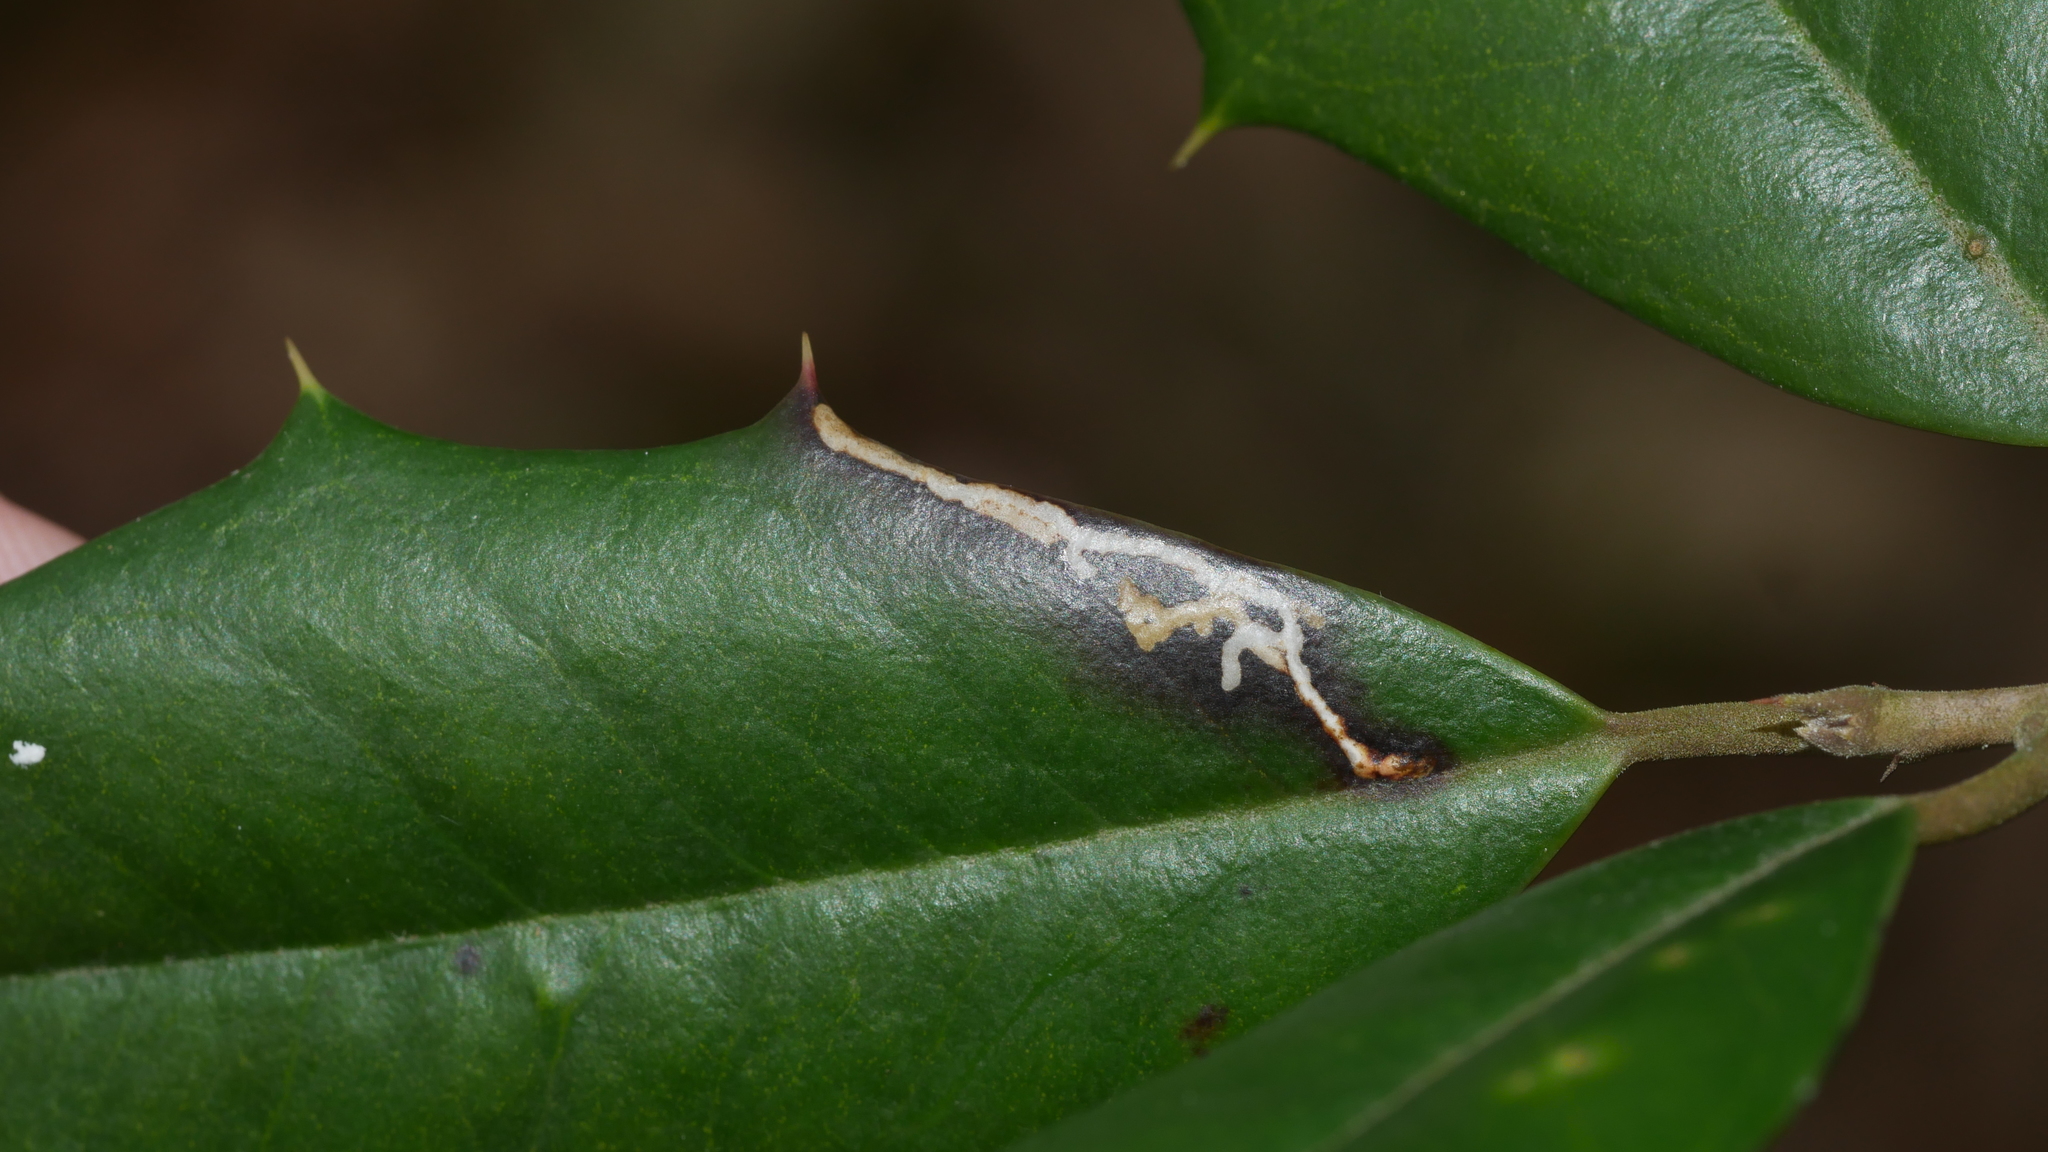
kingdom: Animalia
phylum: Arthropoda
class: Insecta
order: Lepidoptera
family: Tortricidae
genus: Rhopobota
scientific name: Rhopobota
